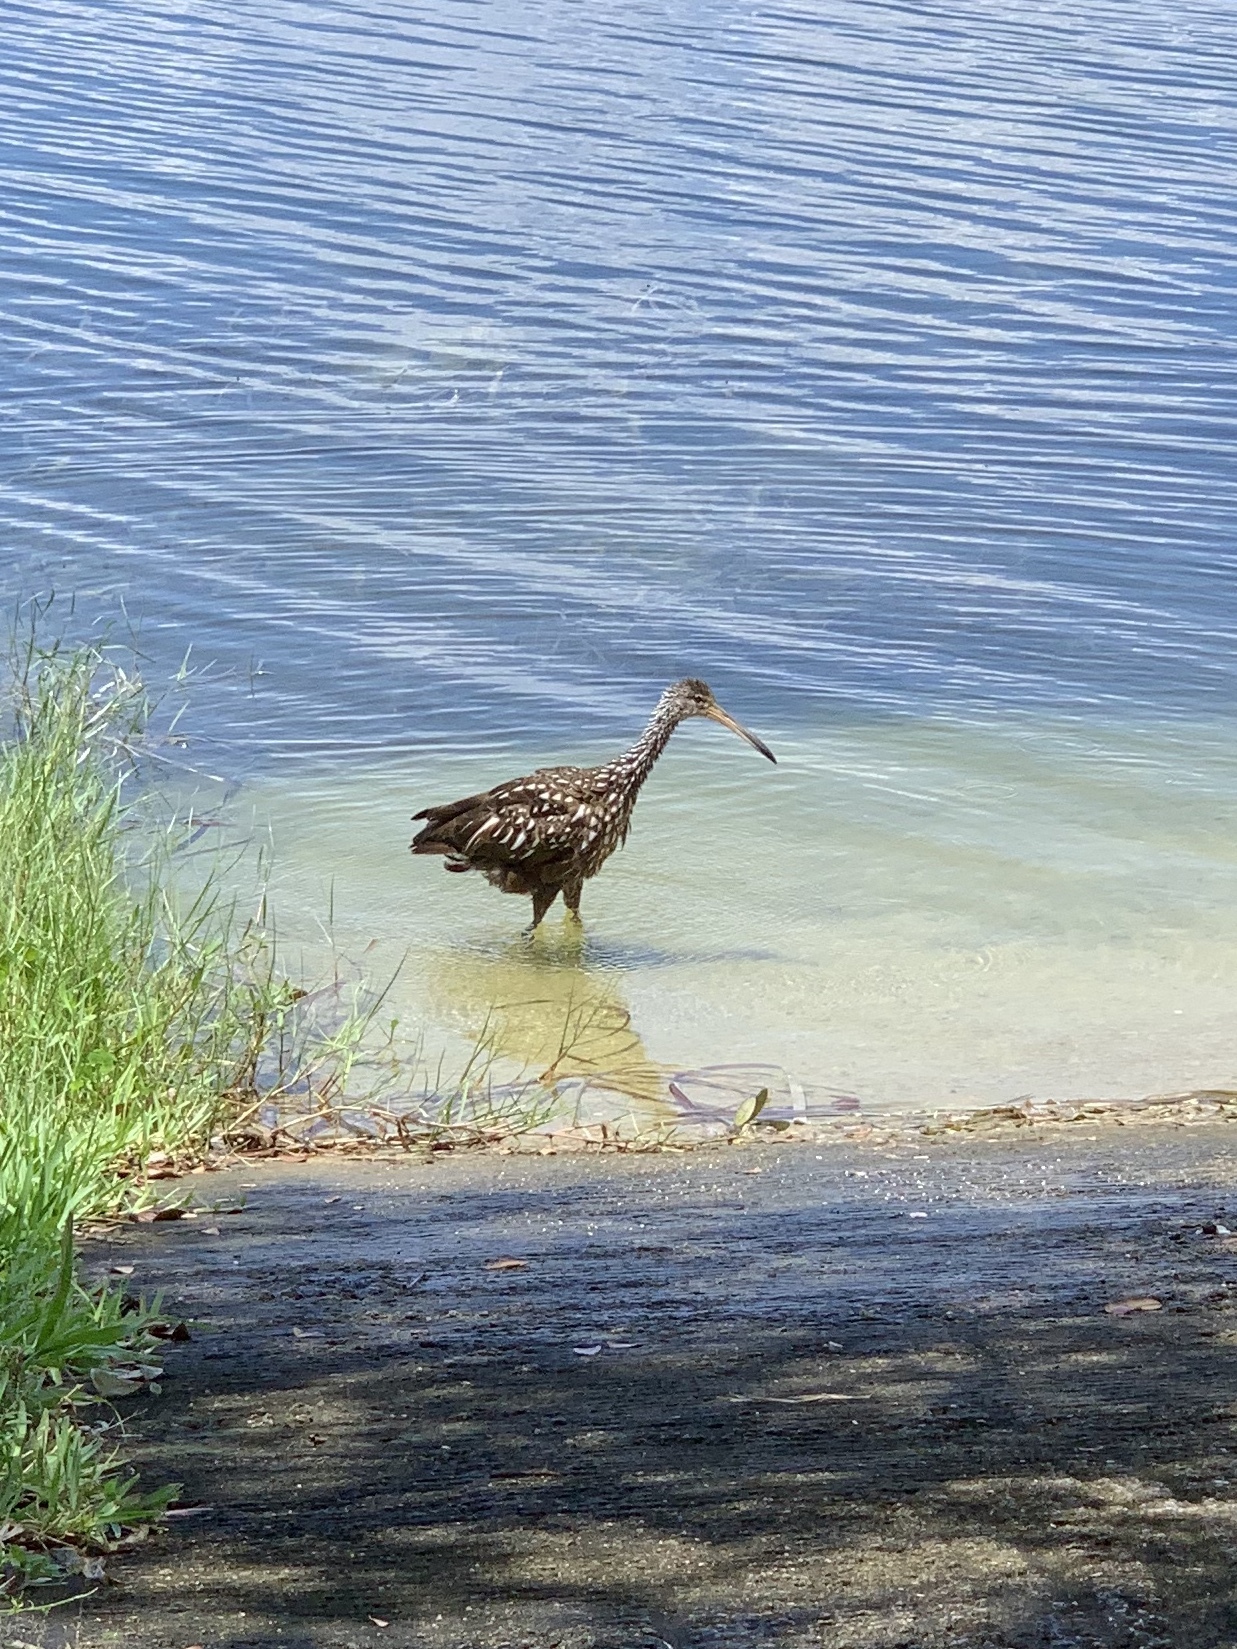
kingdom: Animalia
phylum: Chordata
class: Aves
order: Gruiformes
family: Aramidae
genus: Aramus
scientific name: Aramus guarauna
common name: Limpkin
